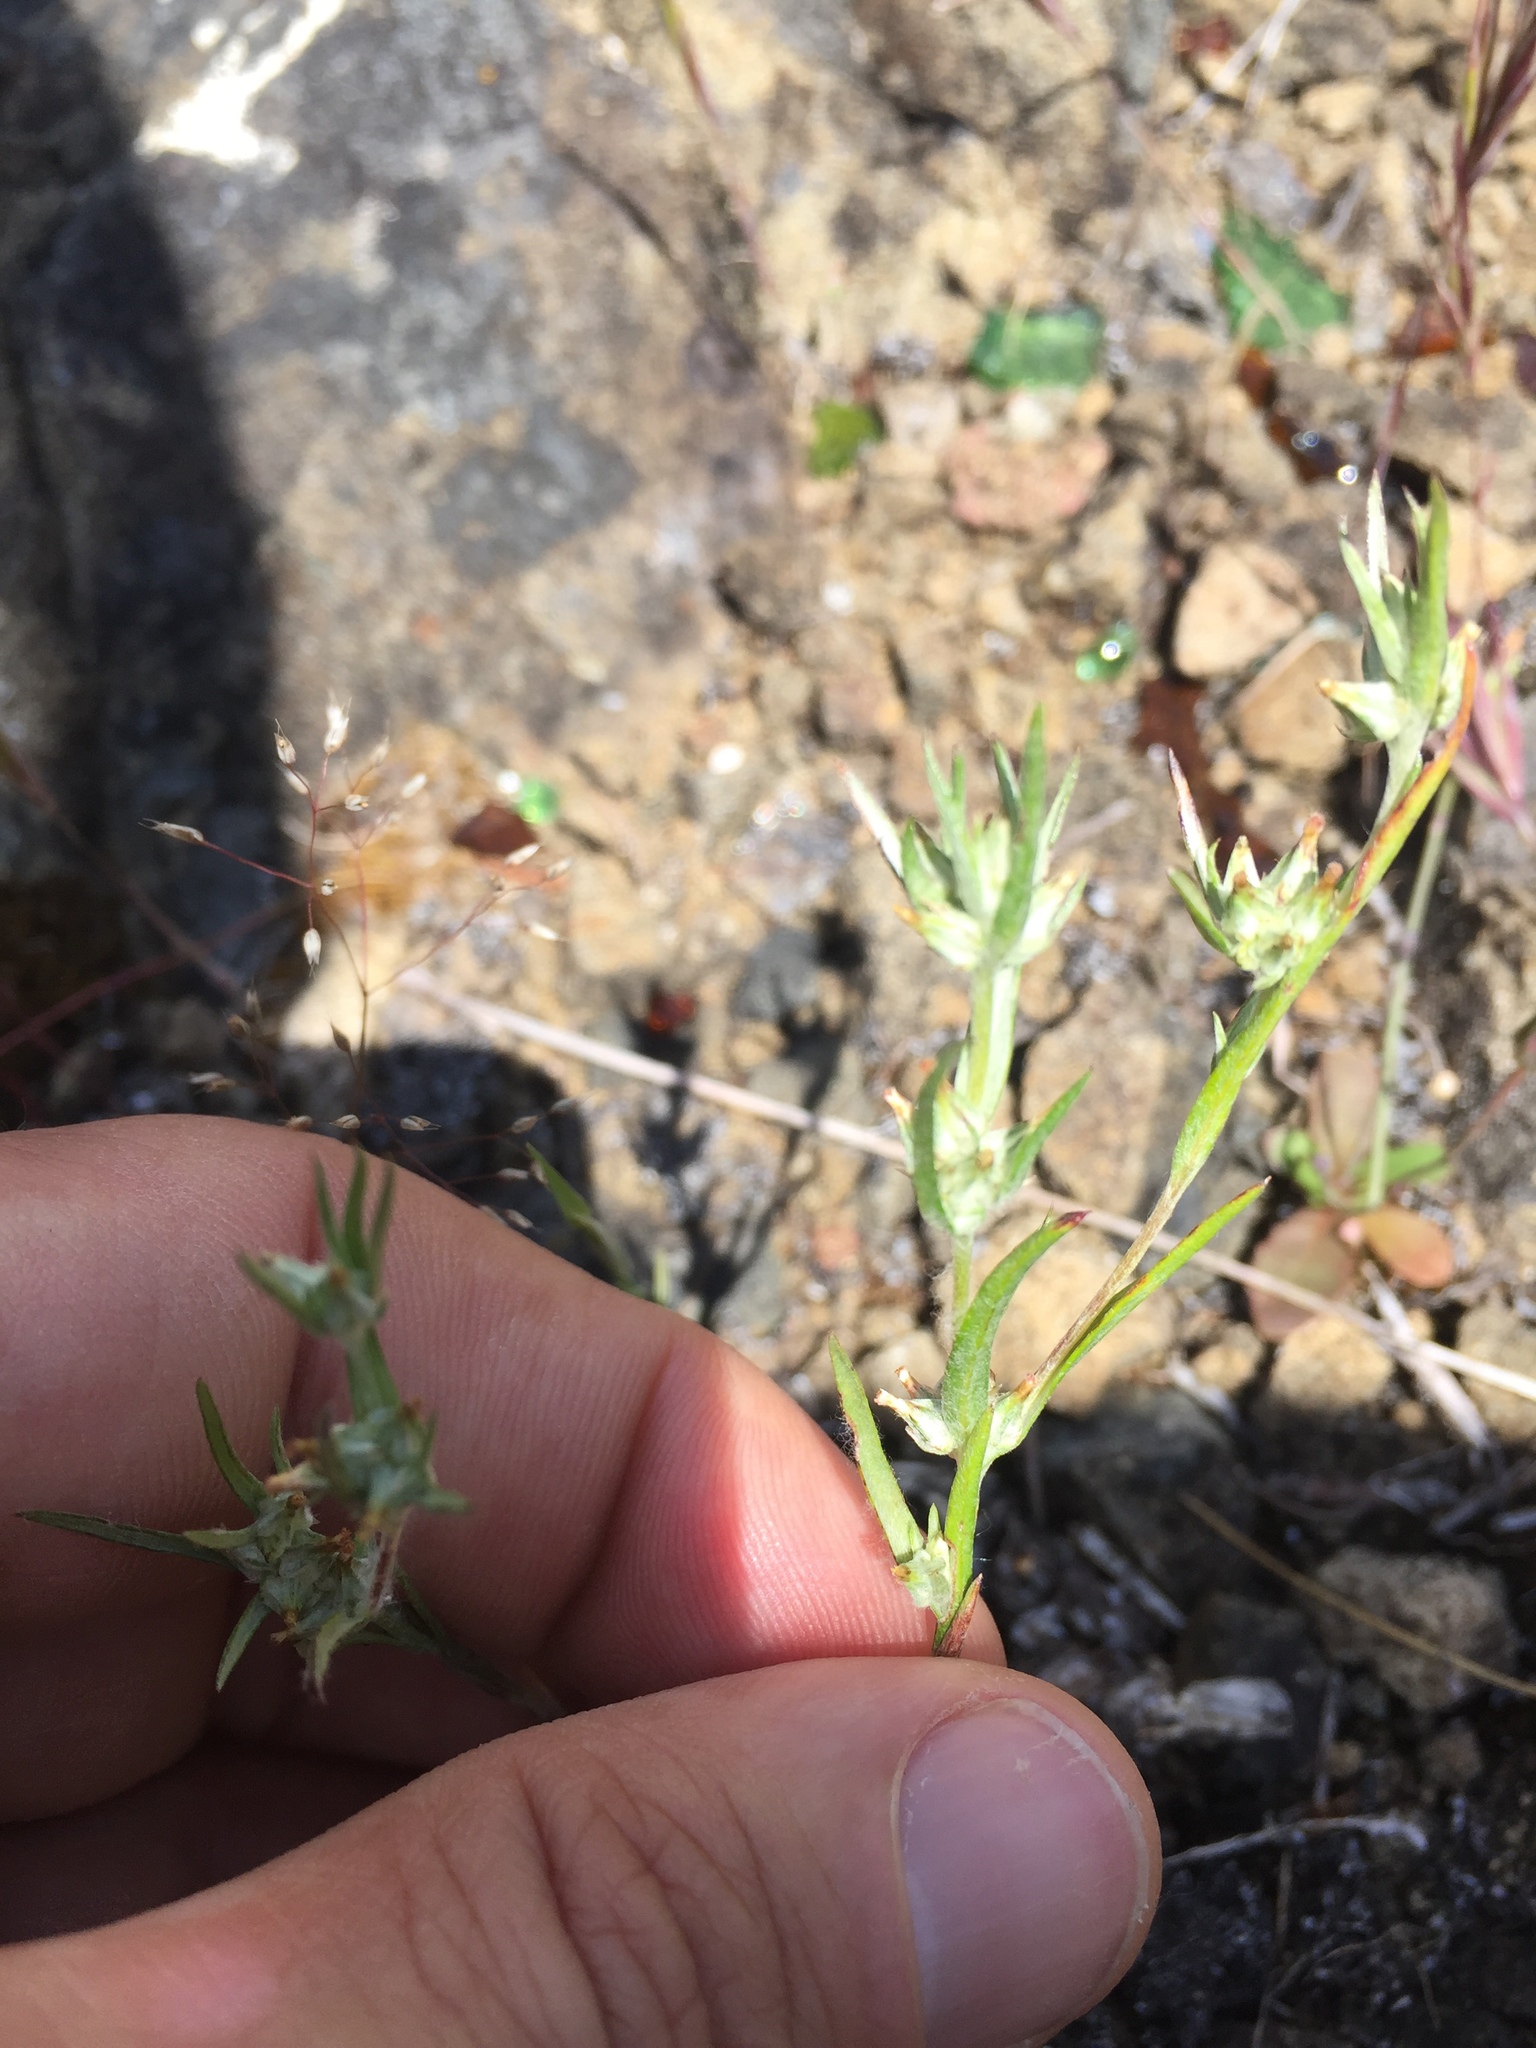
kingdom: Plantae
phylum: Tracheophyta
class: Magnoliopsida
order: Asterales
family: Asteraceae
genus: Logfia
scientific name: Logfia gallica
